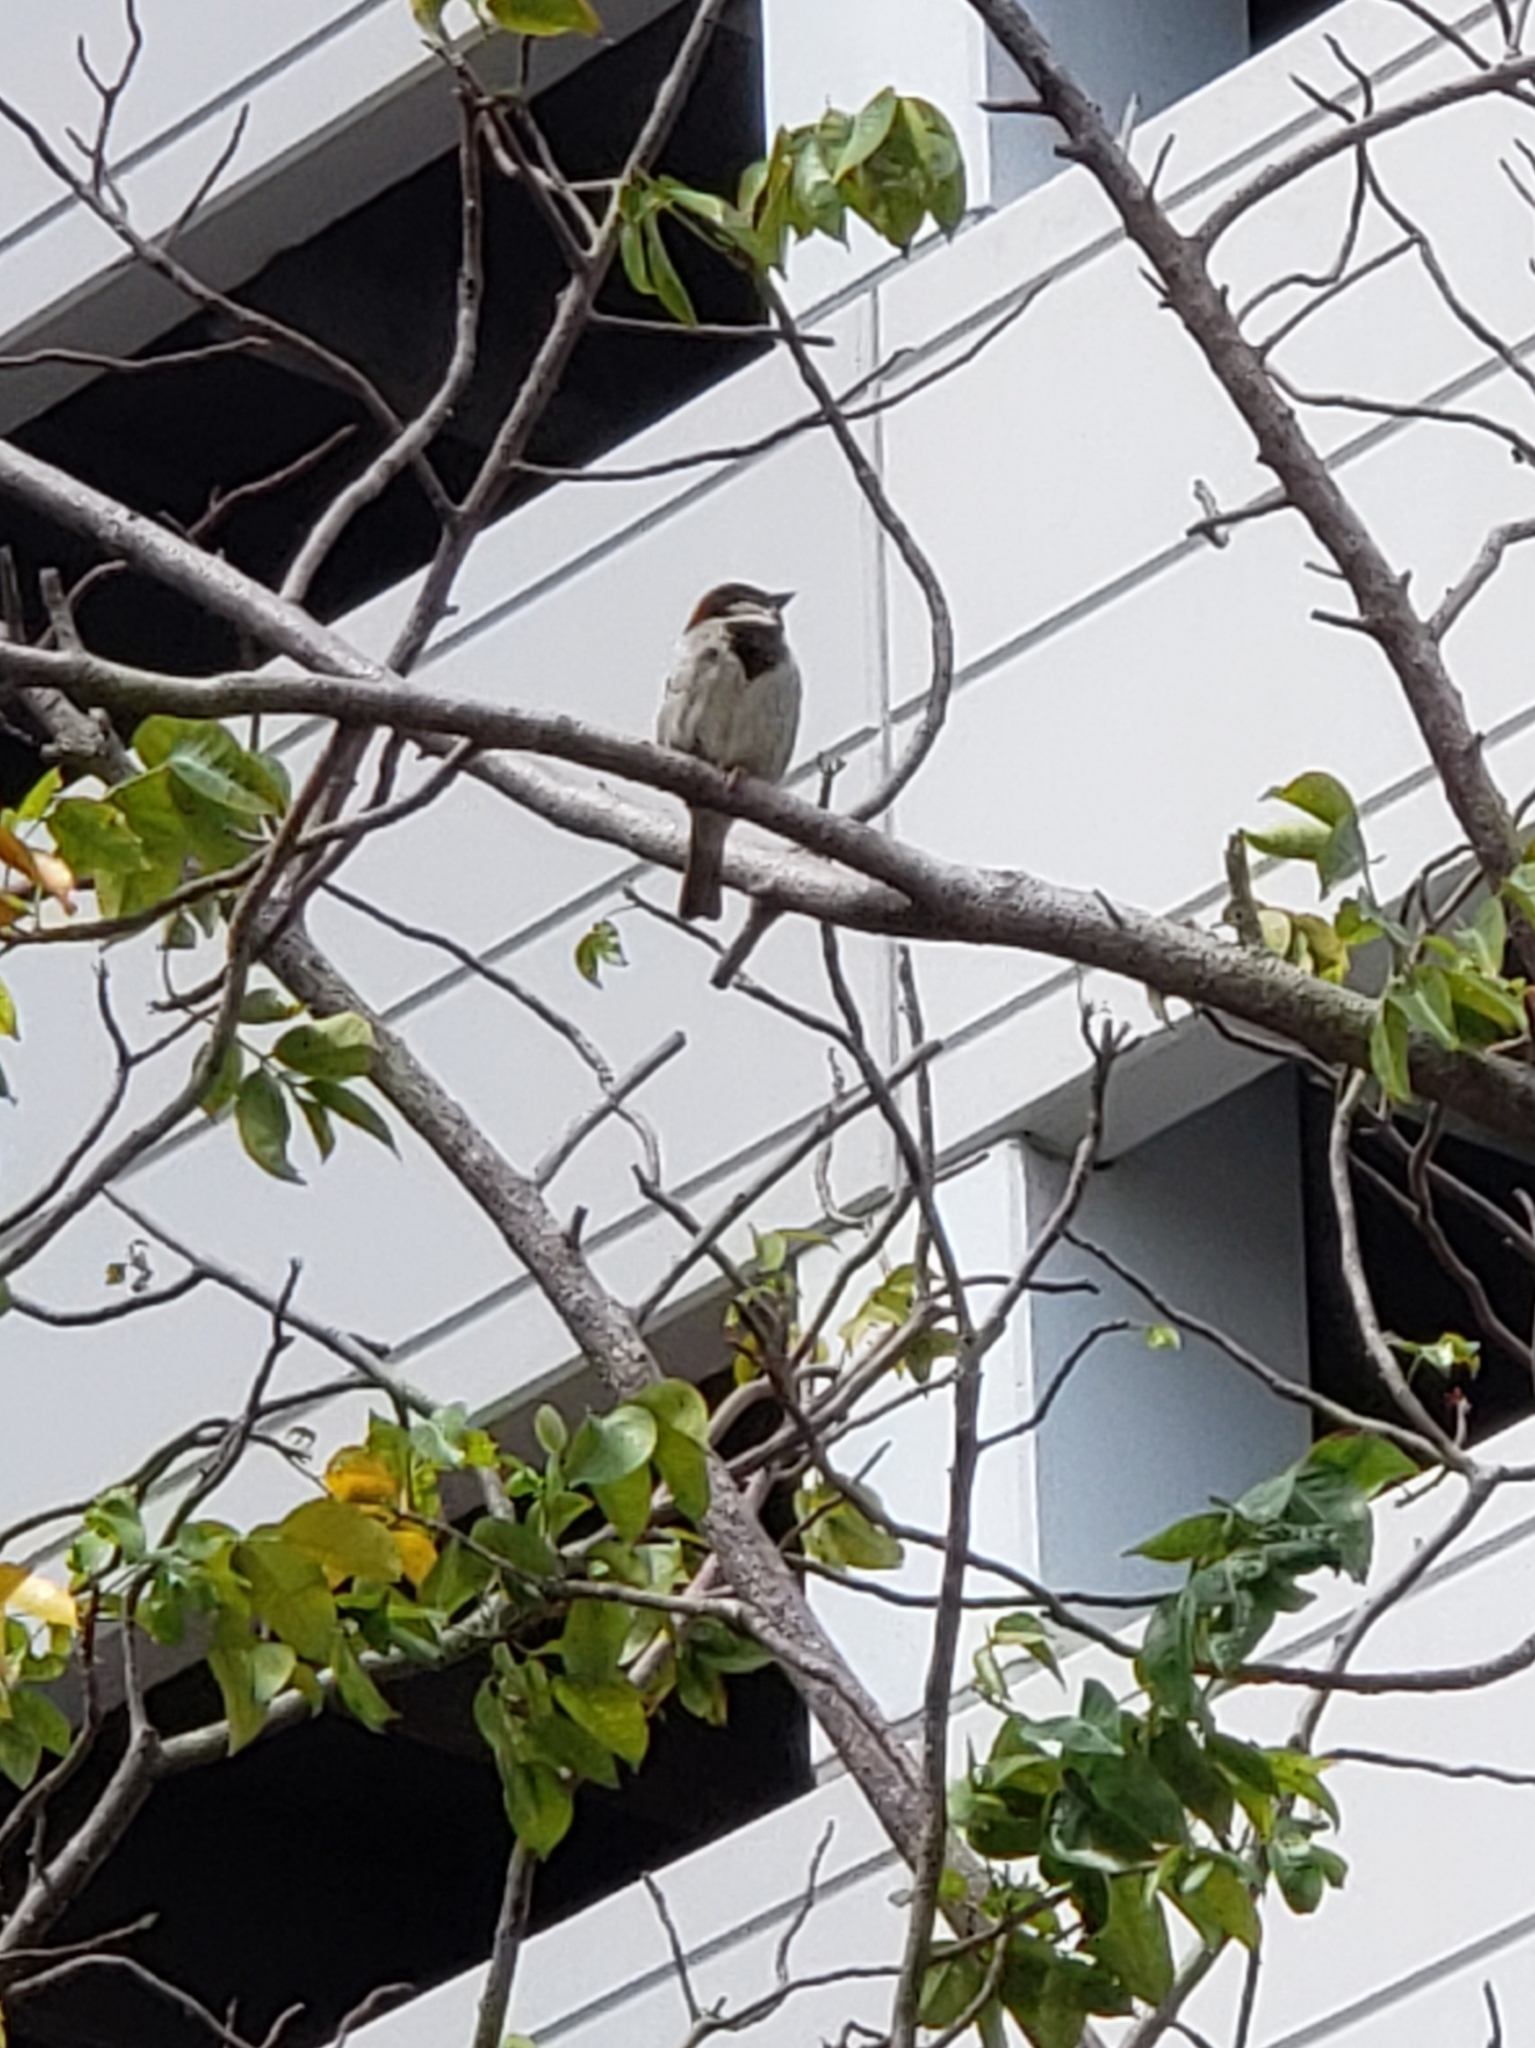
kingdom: Animalia
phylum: Chordata
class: Aves
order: Passeriformes
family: Passeridae
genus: Passer
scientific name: Passer domesticus
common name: House sparrow
